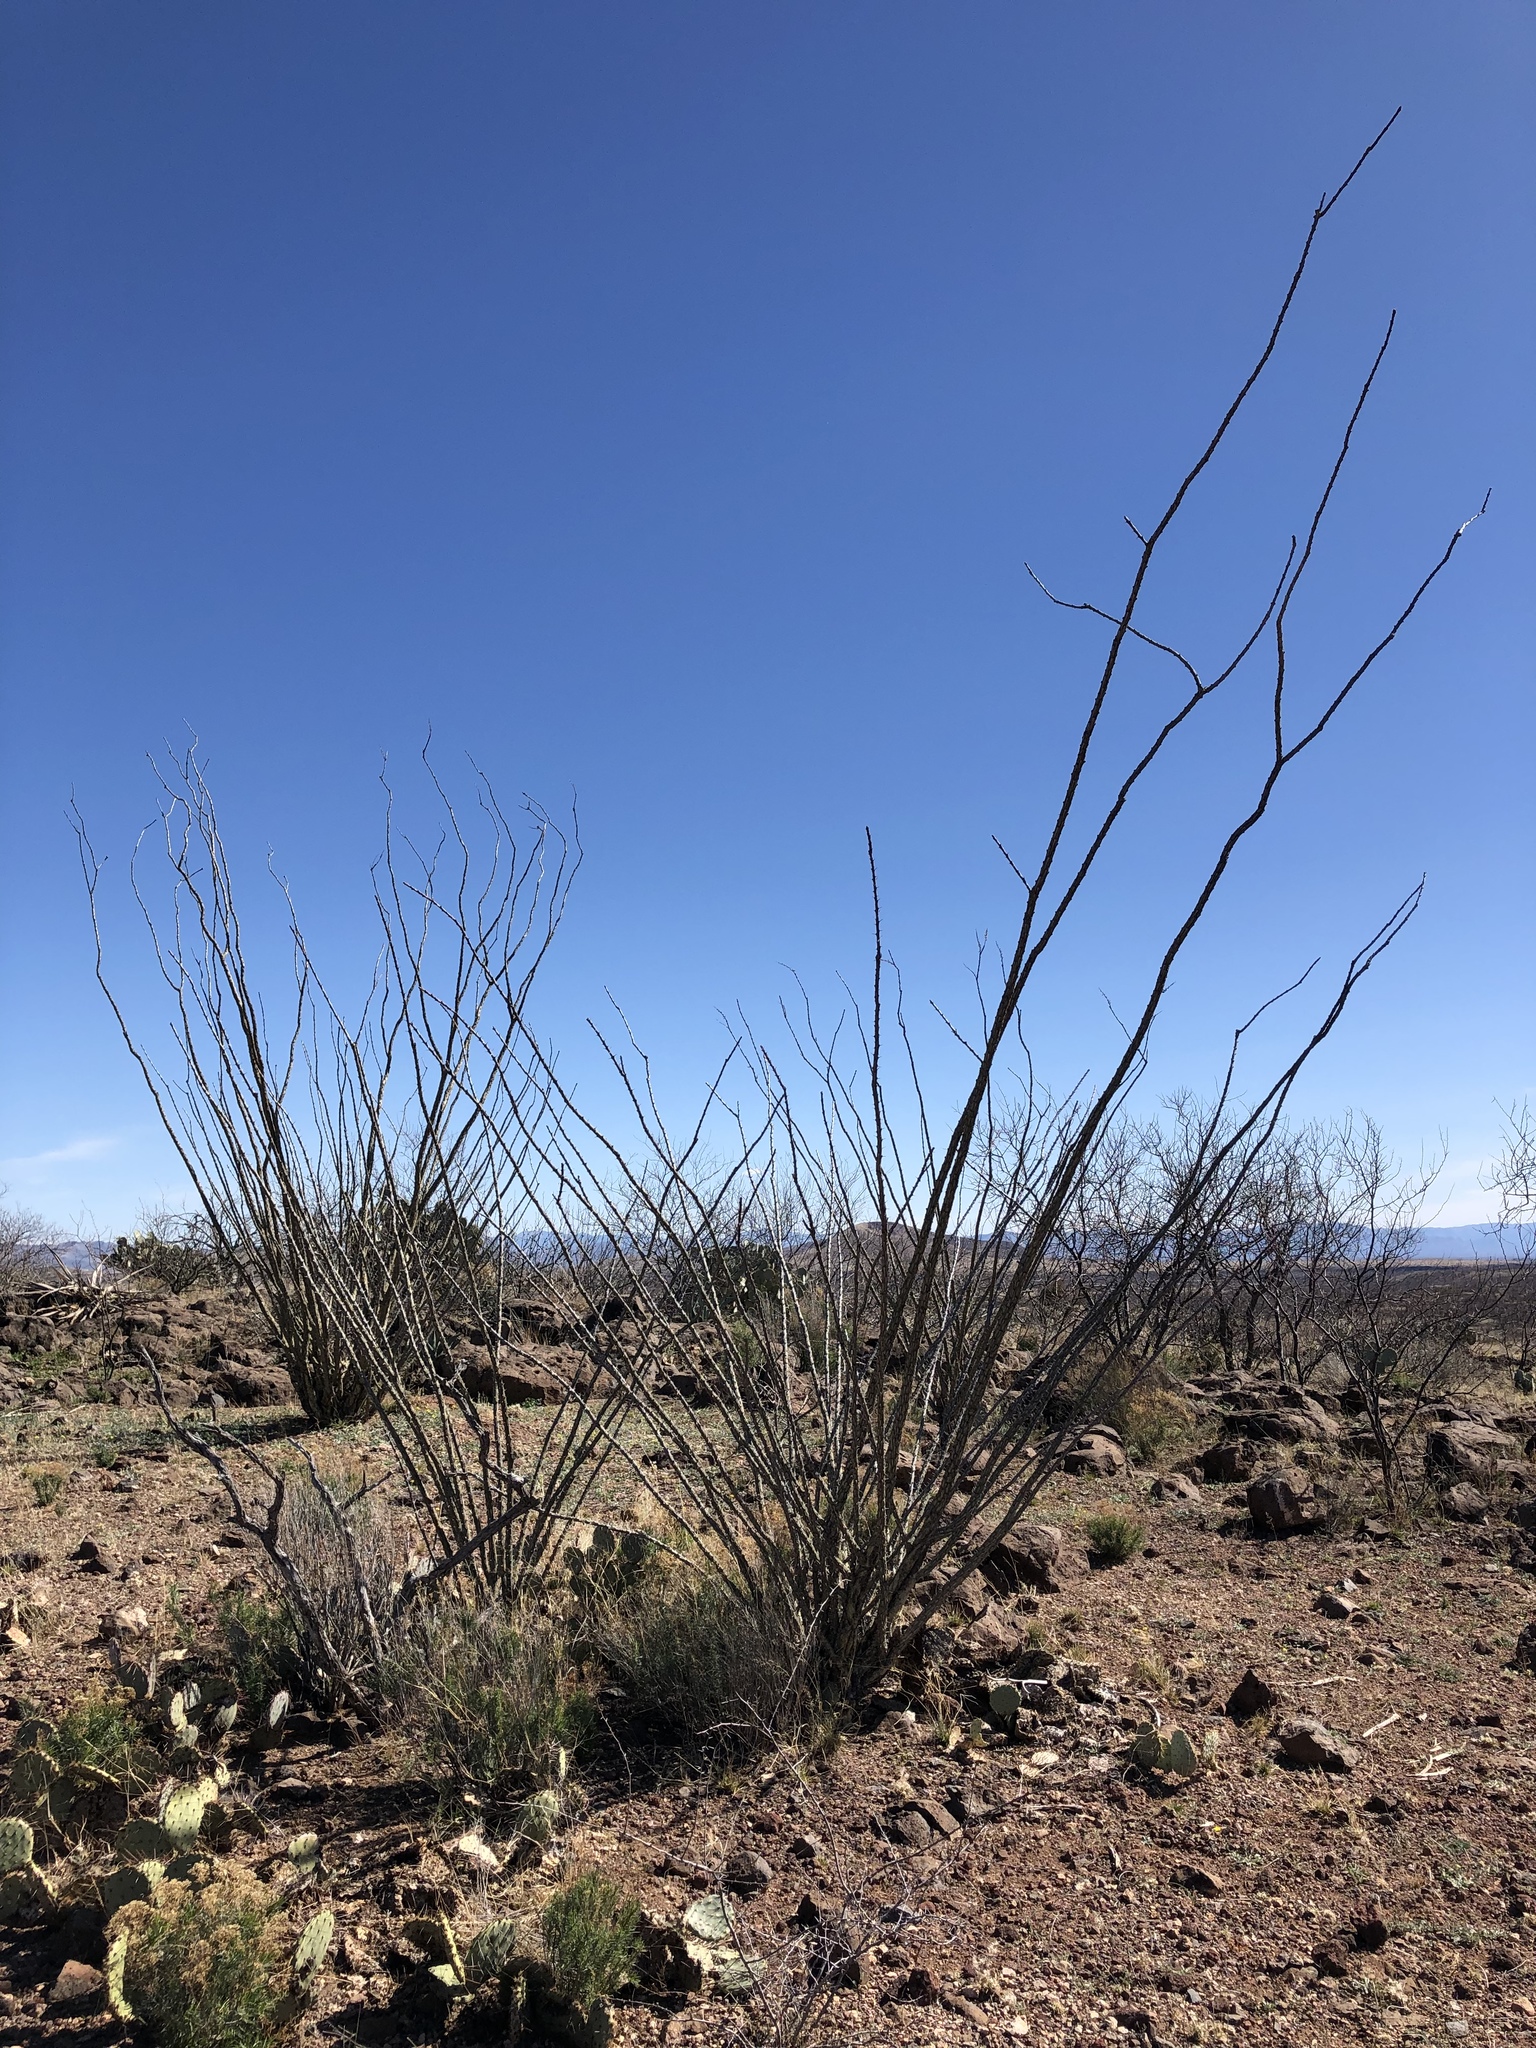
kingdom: Plantae
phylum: Tracheophyta
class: Magnoliopsida
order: Ericales
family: Fouquieriaceae
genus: Fouquieria
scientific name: Fouquieria splendens
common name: Vine-cactus
